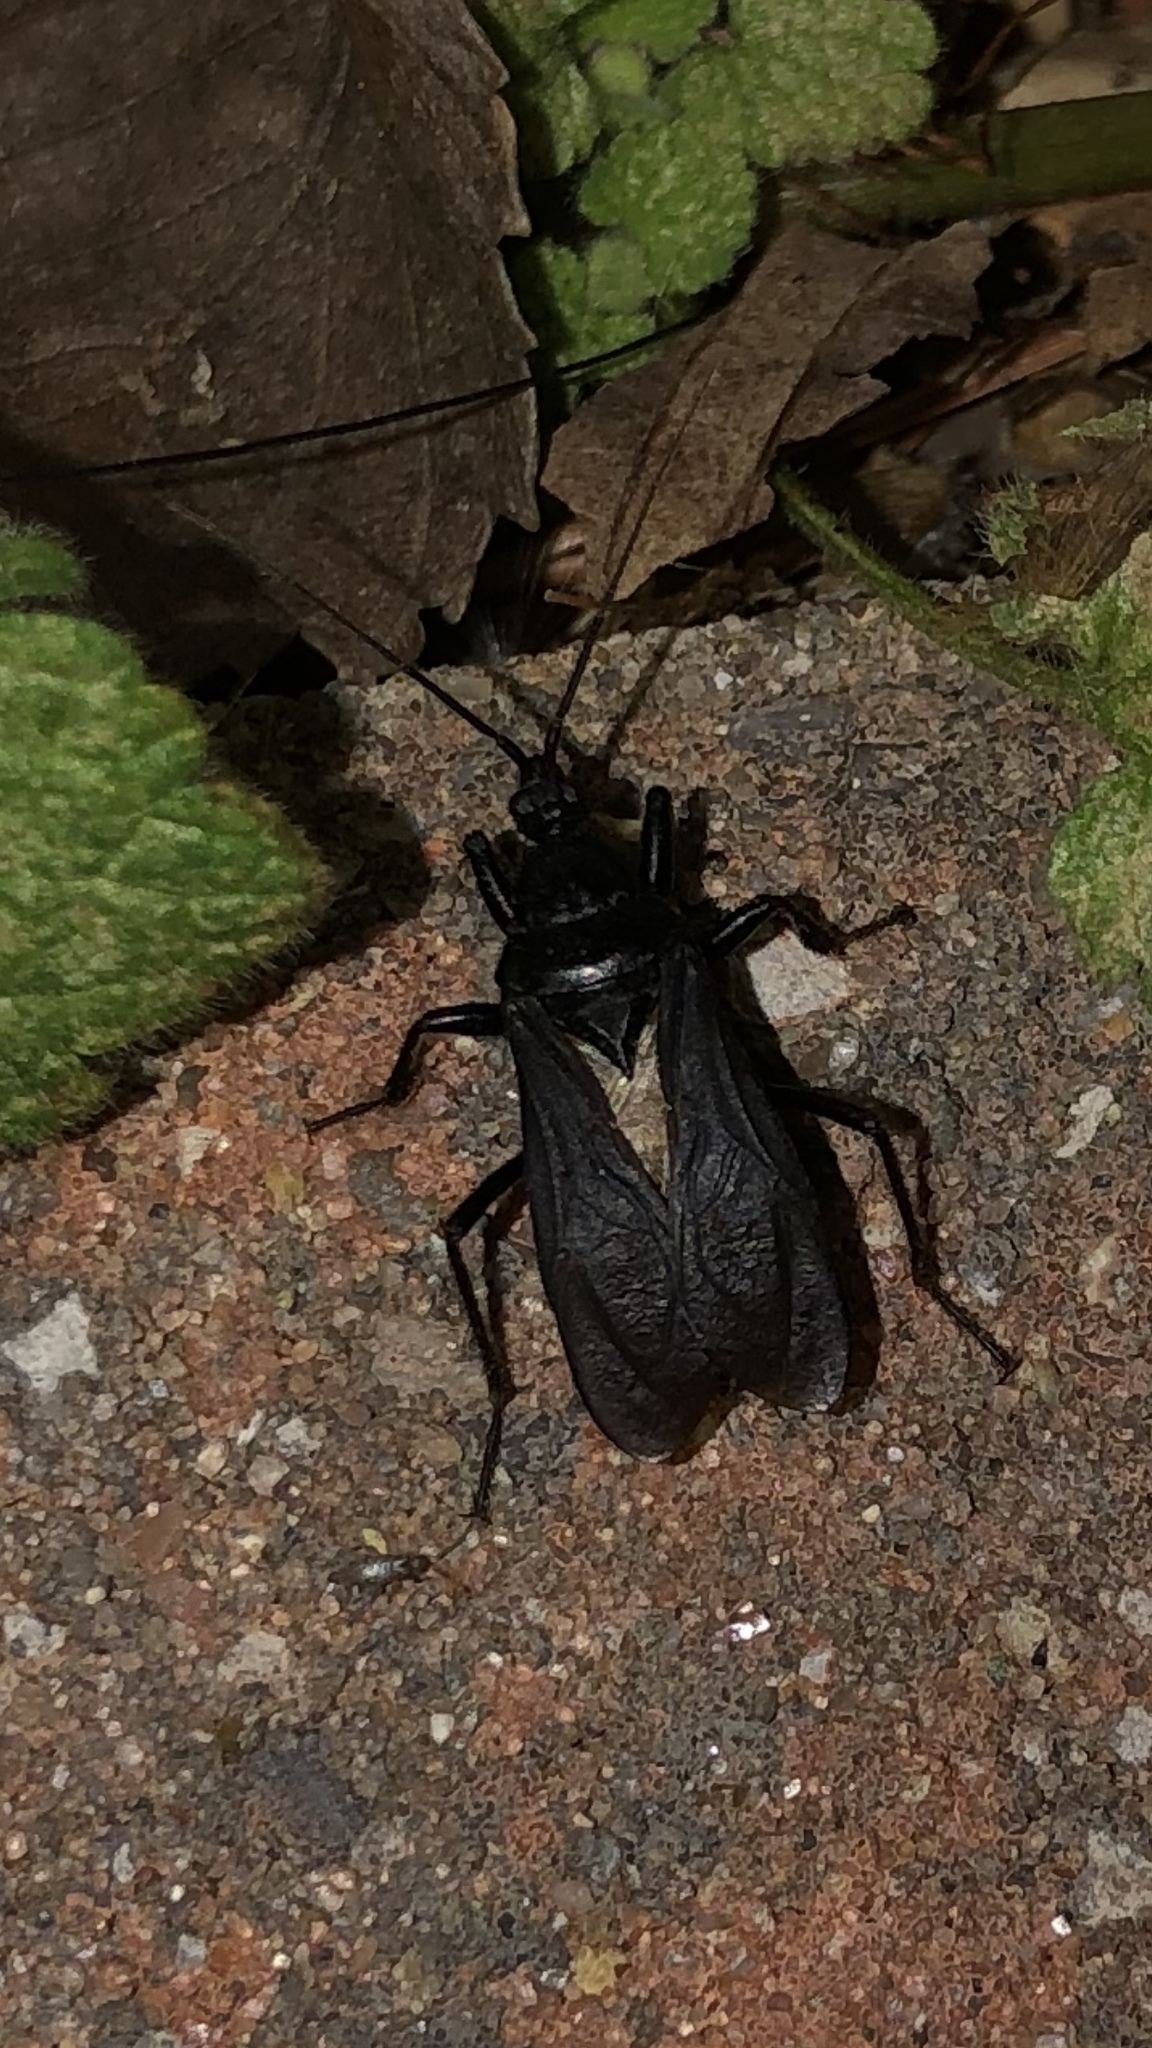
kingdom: Animalia
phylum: Arthropoda
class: Insecta
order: Hemiptera
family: Reduviidae
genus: Melanolestes
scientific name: Melanolestes picipes
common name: Assassin bug
